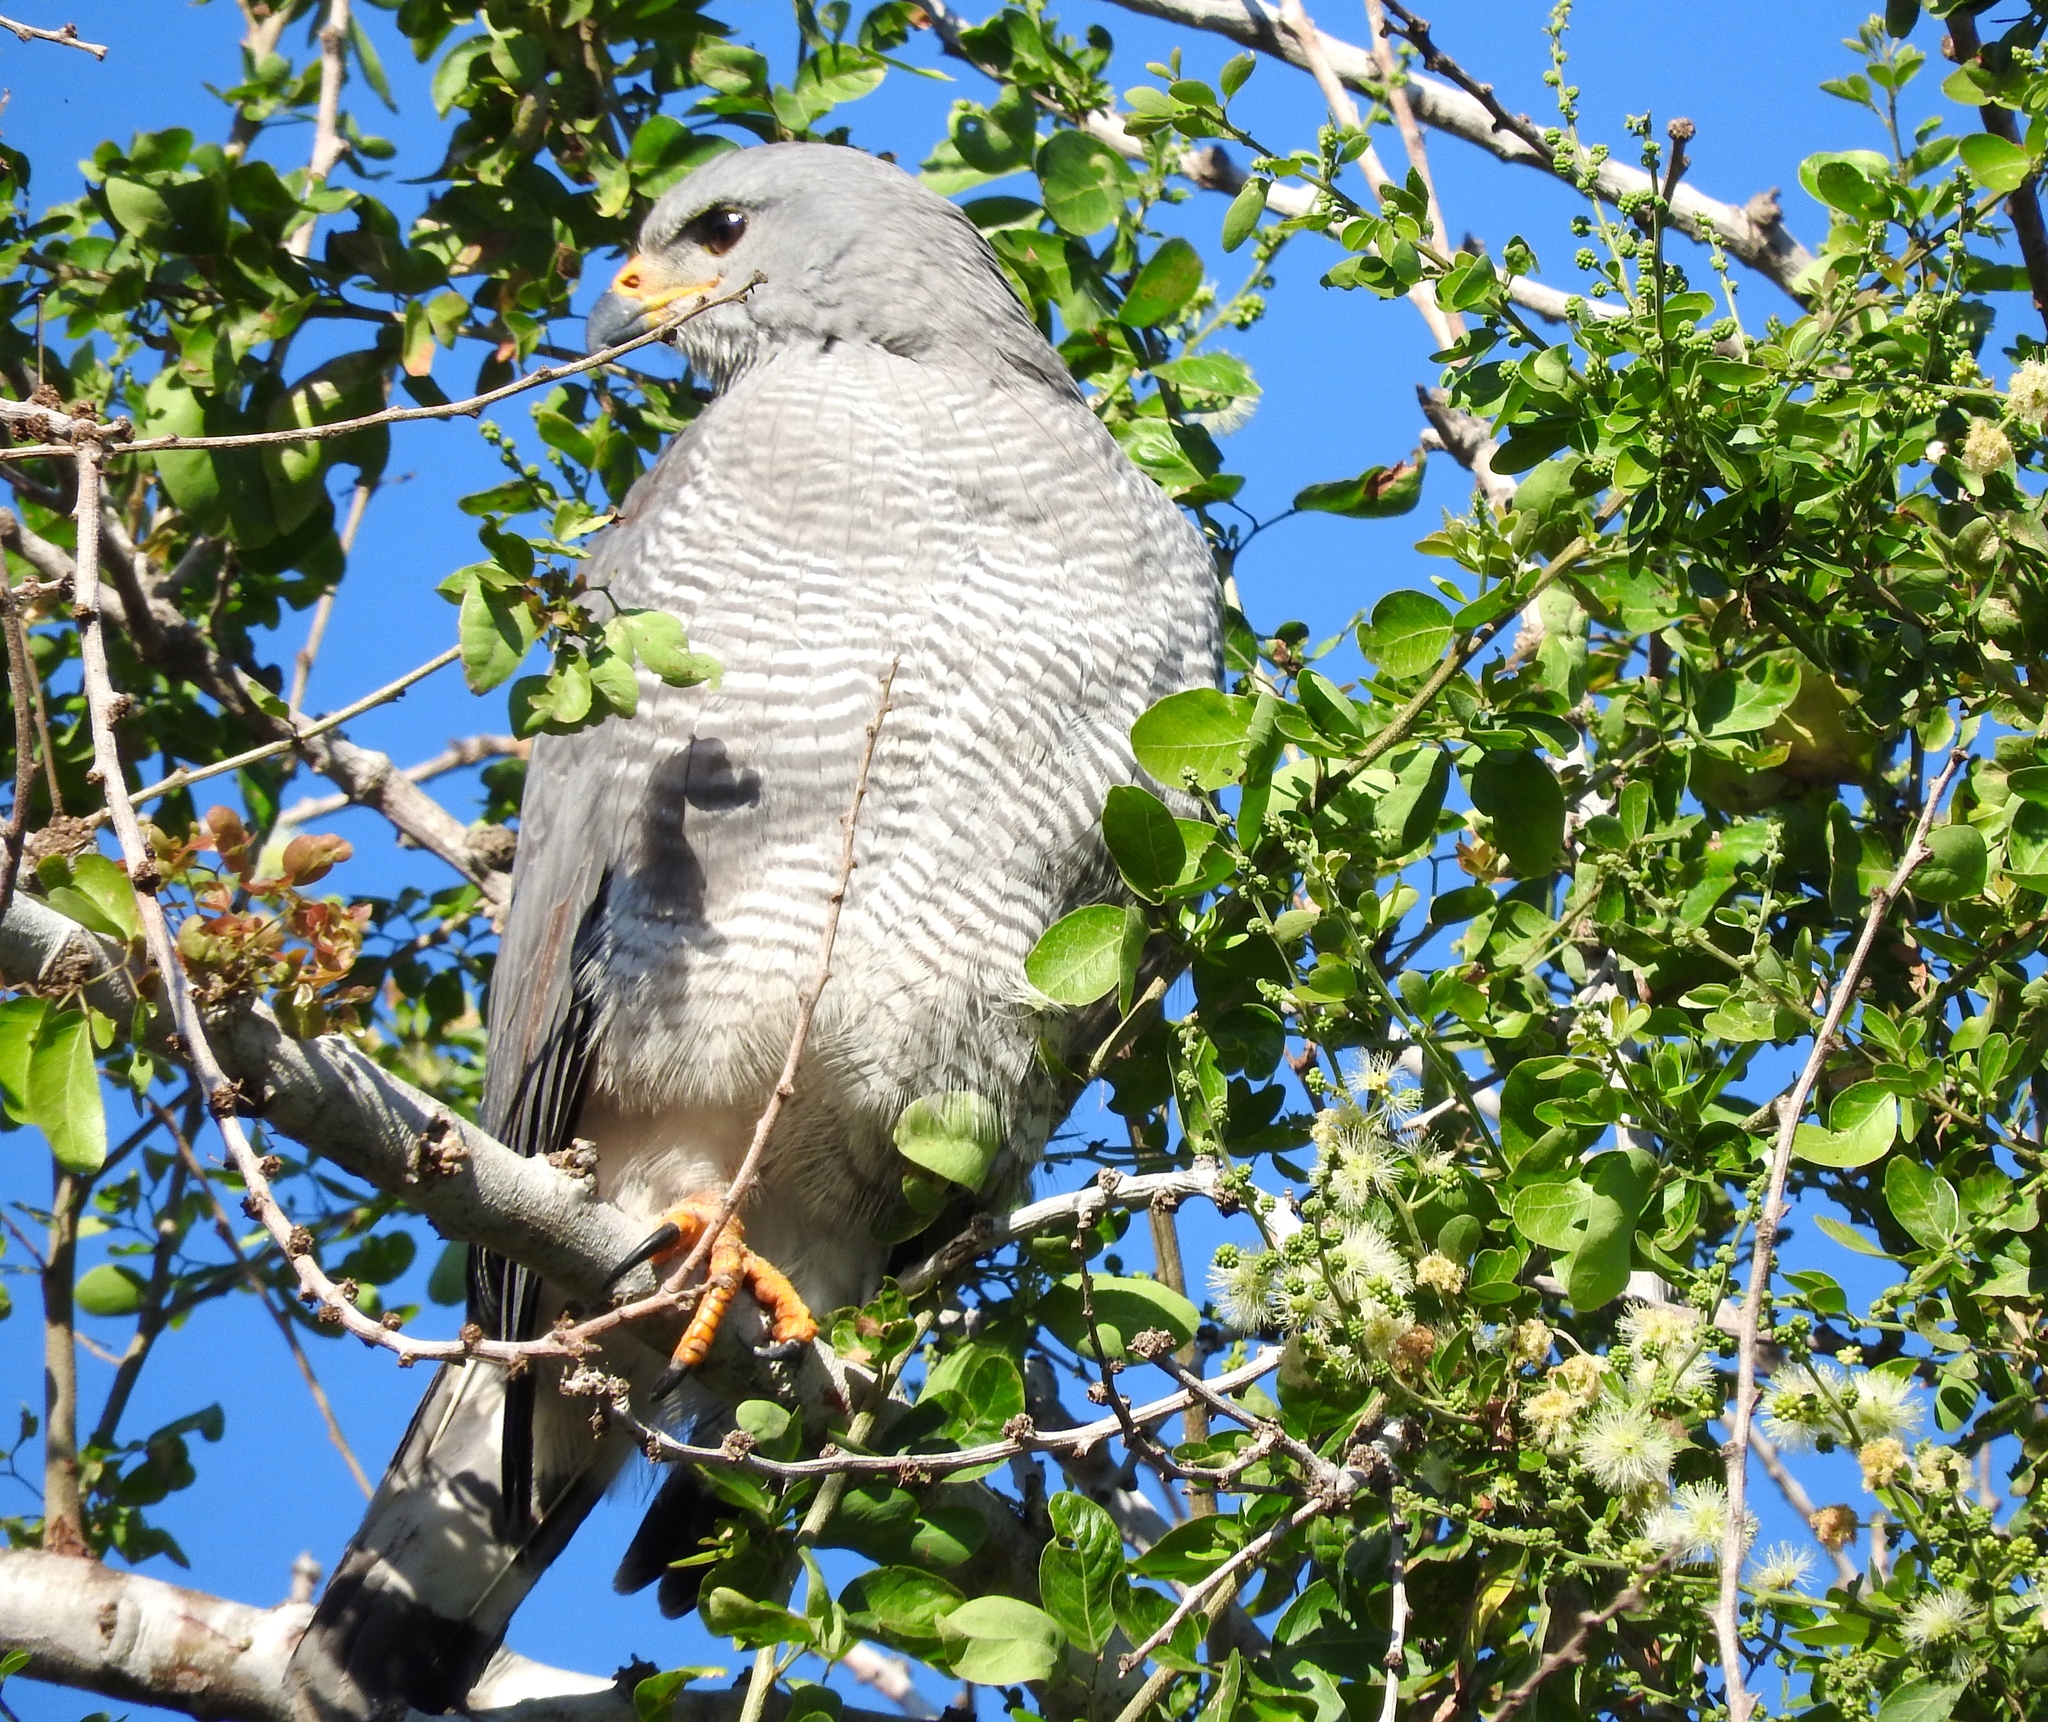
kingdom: Animalia
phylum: Chordata
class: Aves
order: Accipitriformes
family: Accipitridae
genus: Buteo
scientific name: Buteo nitidus
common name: Grey-lined hawk
